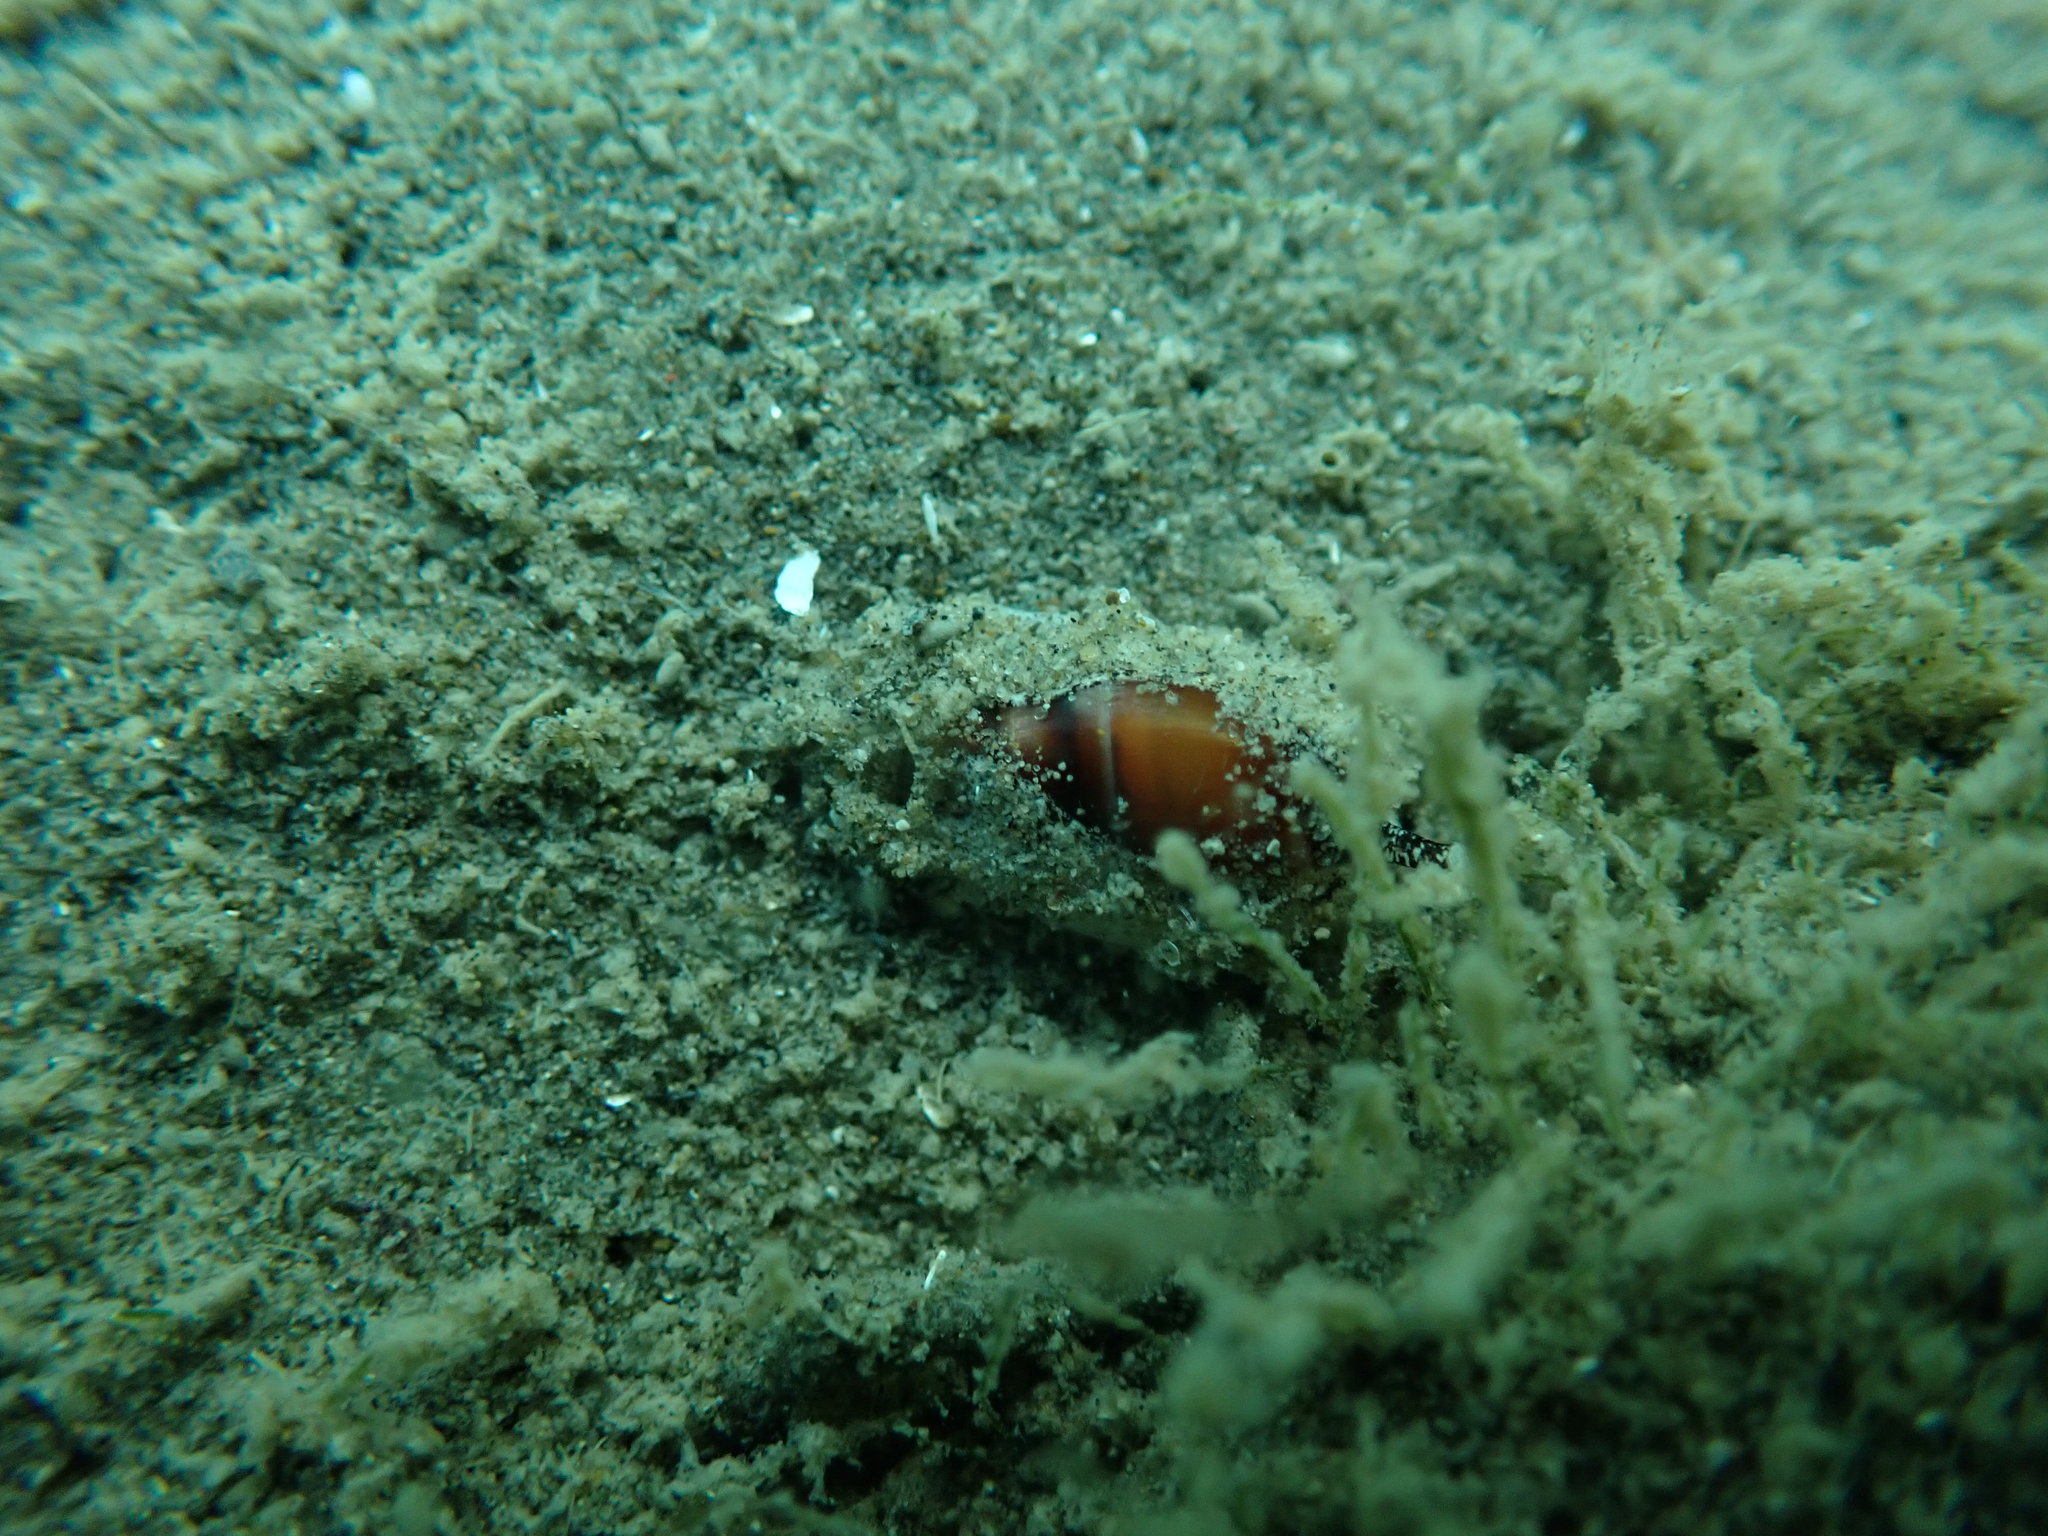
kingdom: Animalia
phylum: Mollusca
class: Gastropoda
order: Neogastropoda
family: Ancillariidae
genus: Amalda
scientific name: Amalda novaezelandiae
